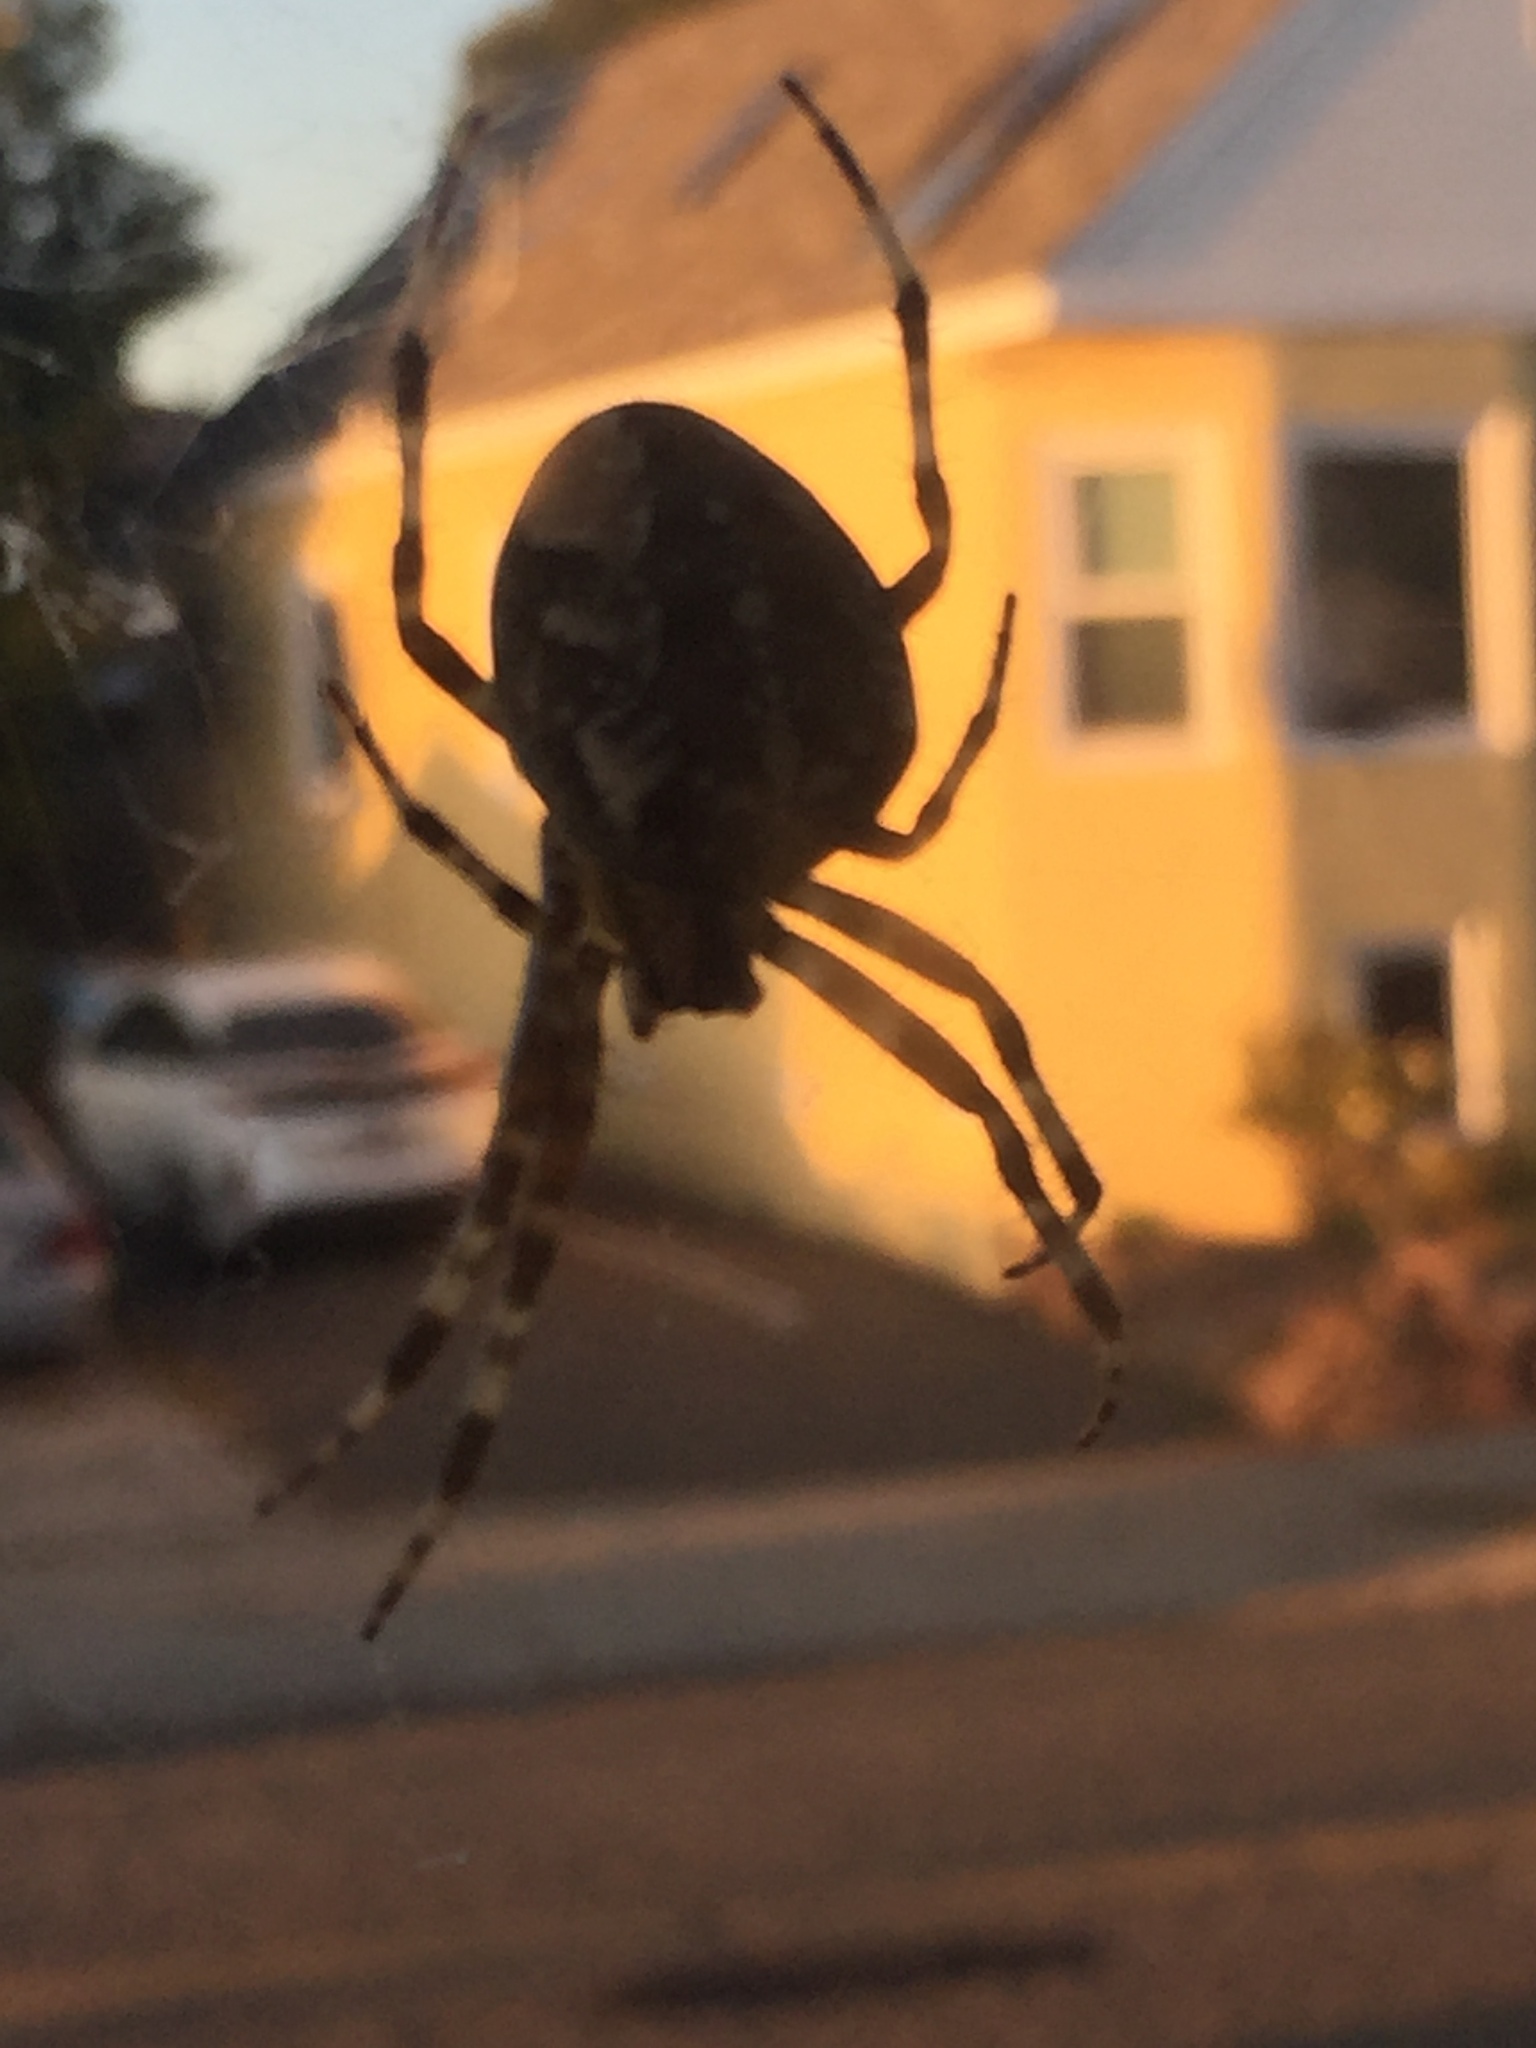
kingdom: Animalia
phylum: Arthropoda
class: Arachnida
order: Araneae
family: Araneidae
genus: Araneus
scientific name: Araneus diadematus
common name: Cross orbweaver
